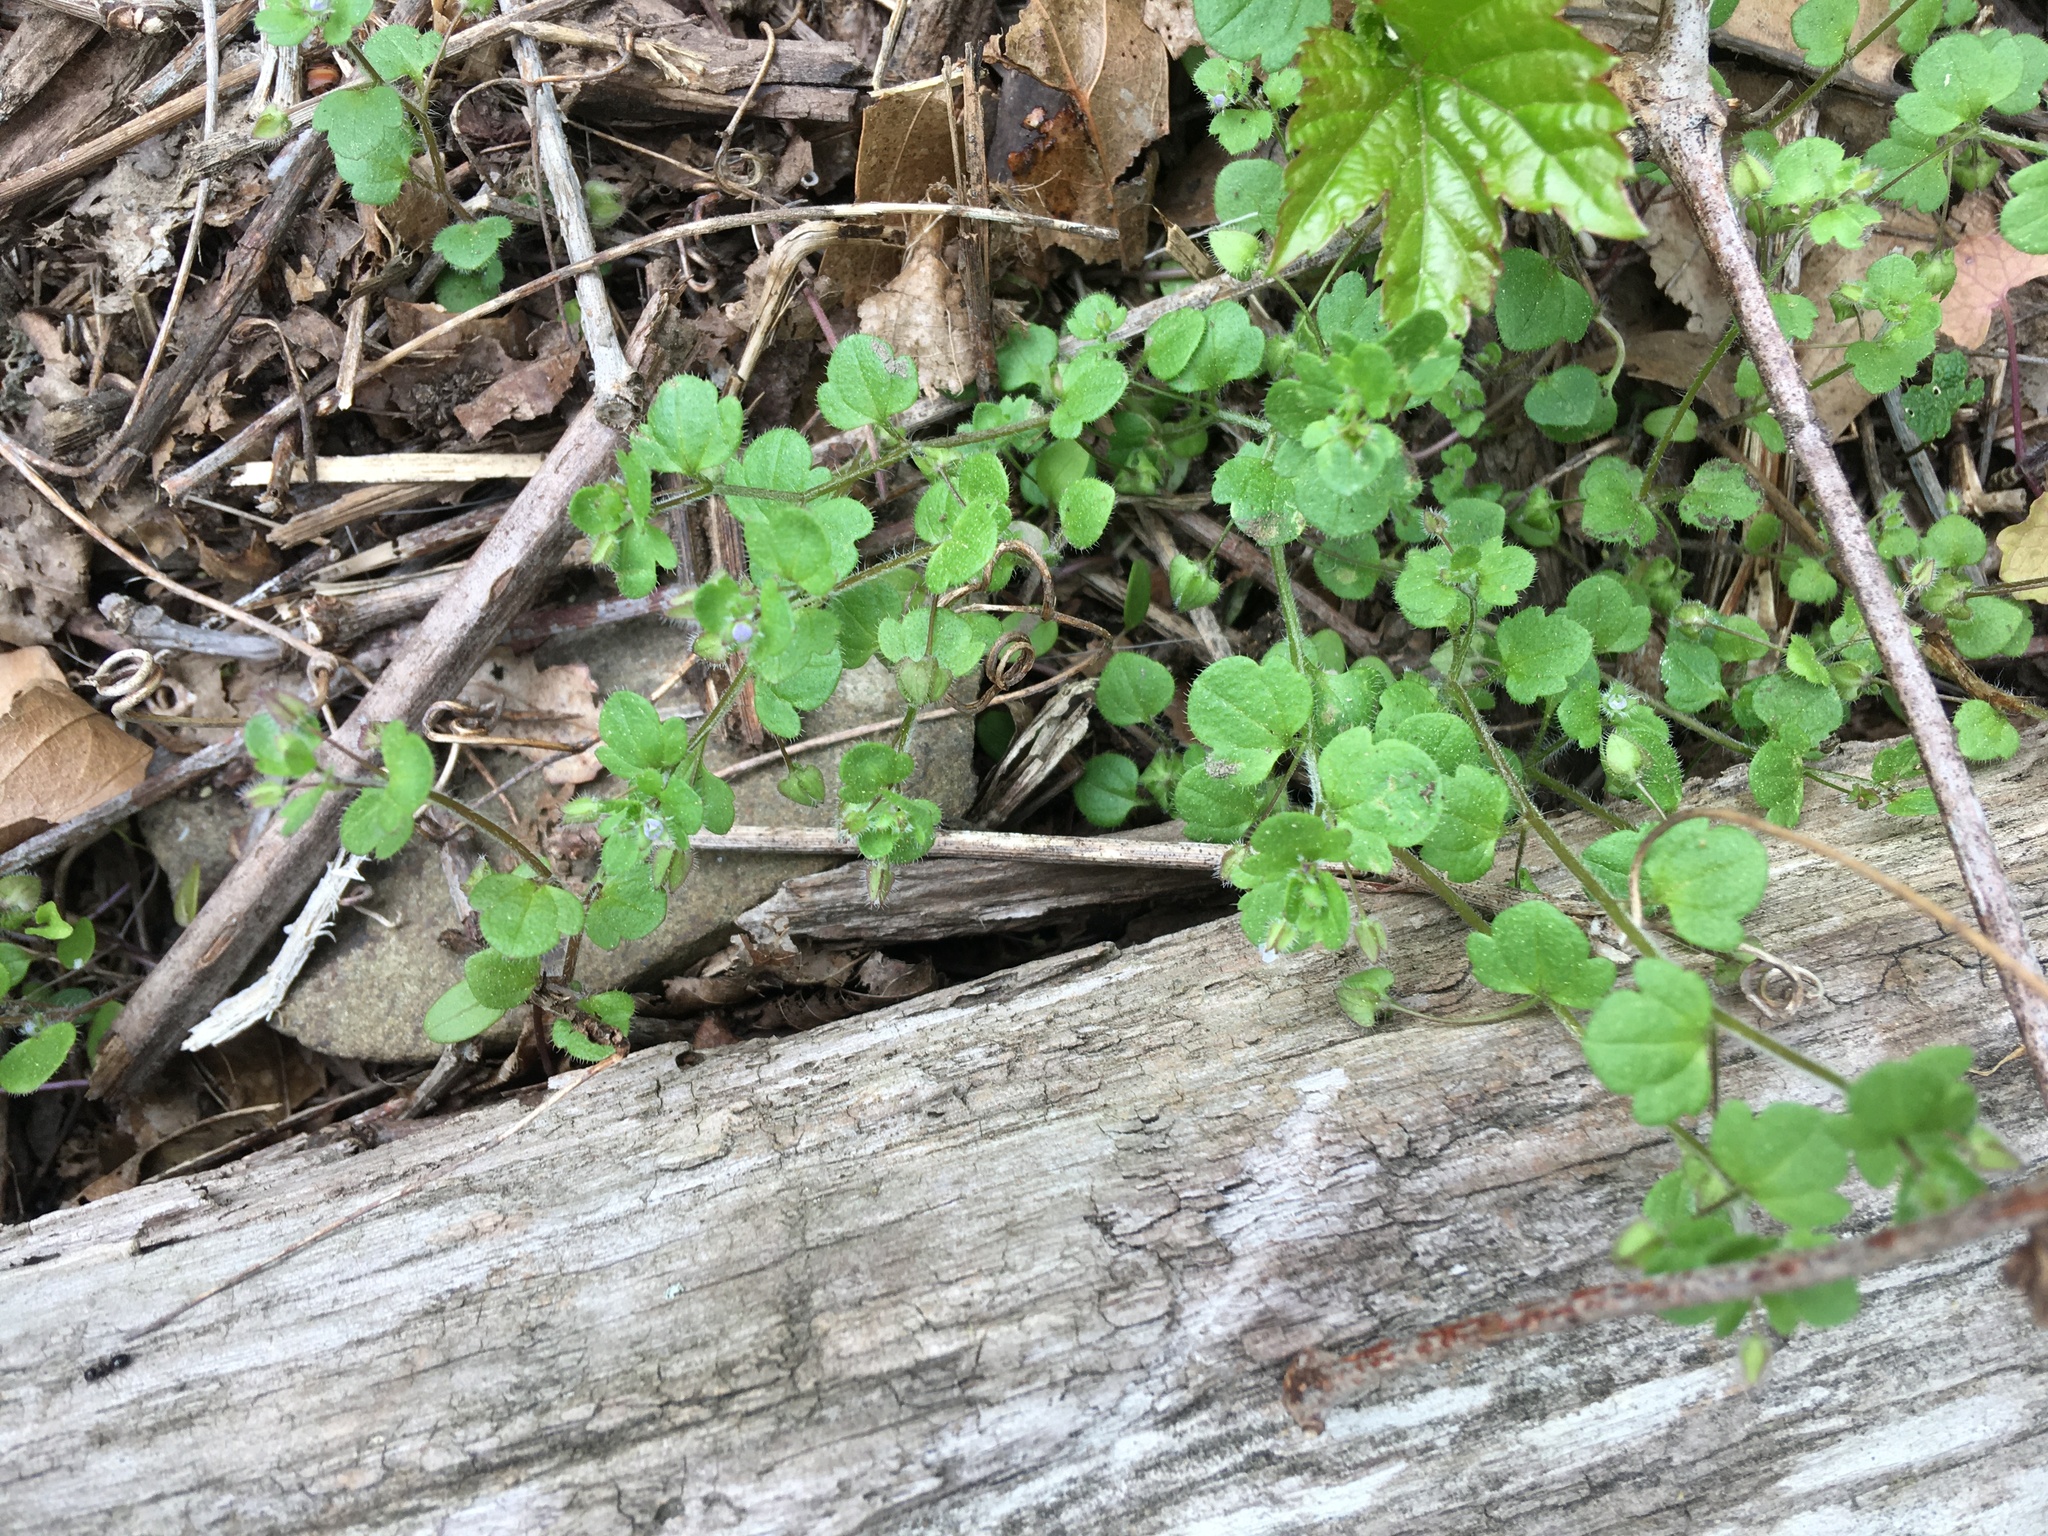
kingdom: Plantae
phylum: Tracheophyta
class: Magnoliopsida
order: Lamiales
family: Plantaginaceae
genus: Veronica
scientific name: Veronica hederifolia
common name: Ivy-leaved speedwell
